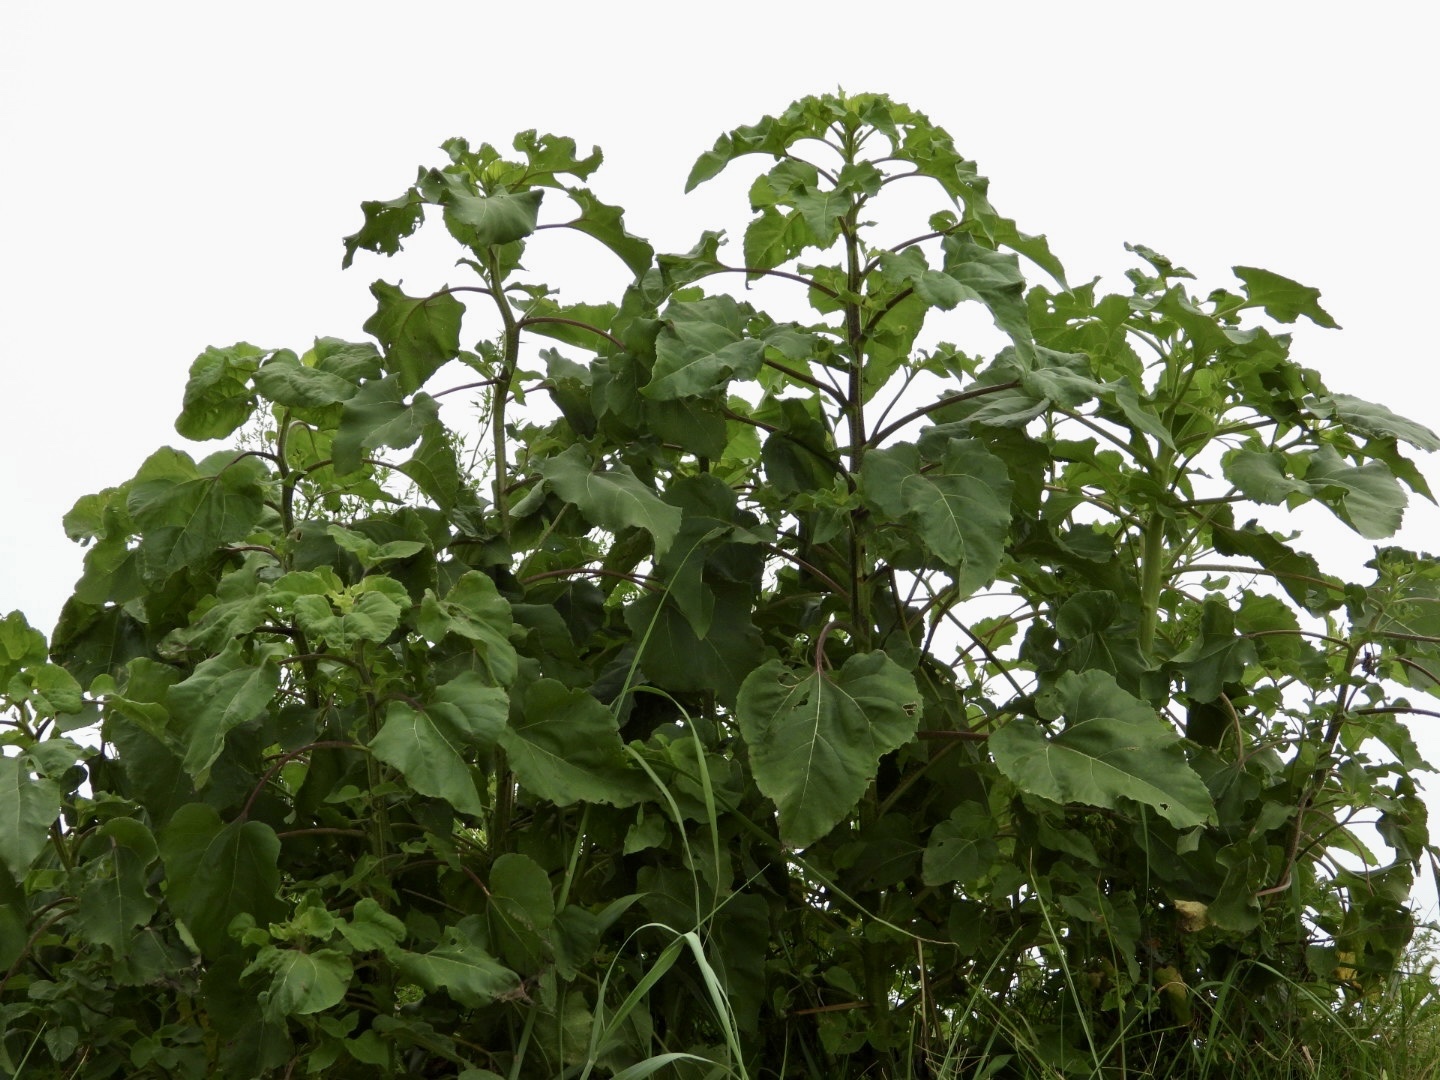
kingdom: Plantae
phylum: Tracheophyta
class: Magnoliopsida
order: Asterales
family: Asteraceae
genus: Helianthus
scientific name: Helianthus annuus
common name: Sunflower
